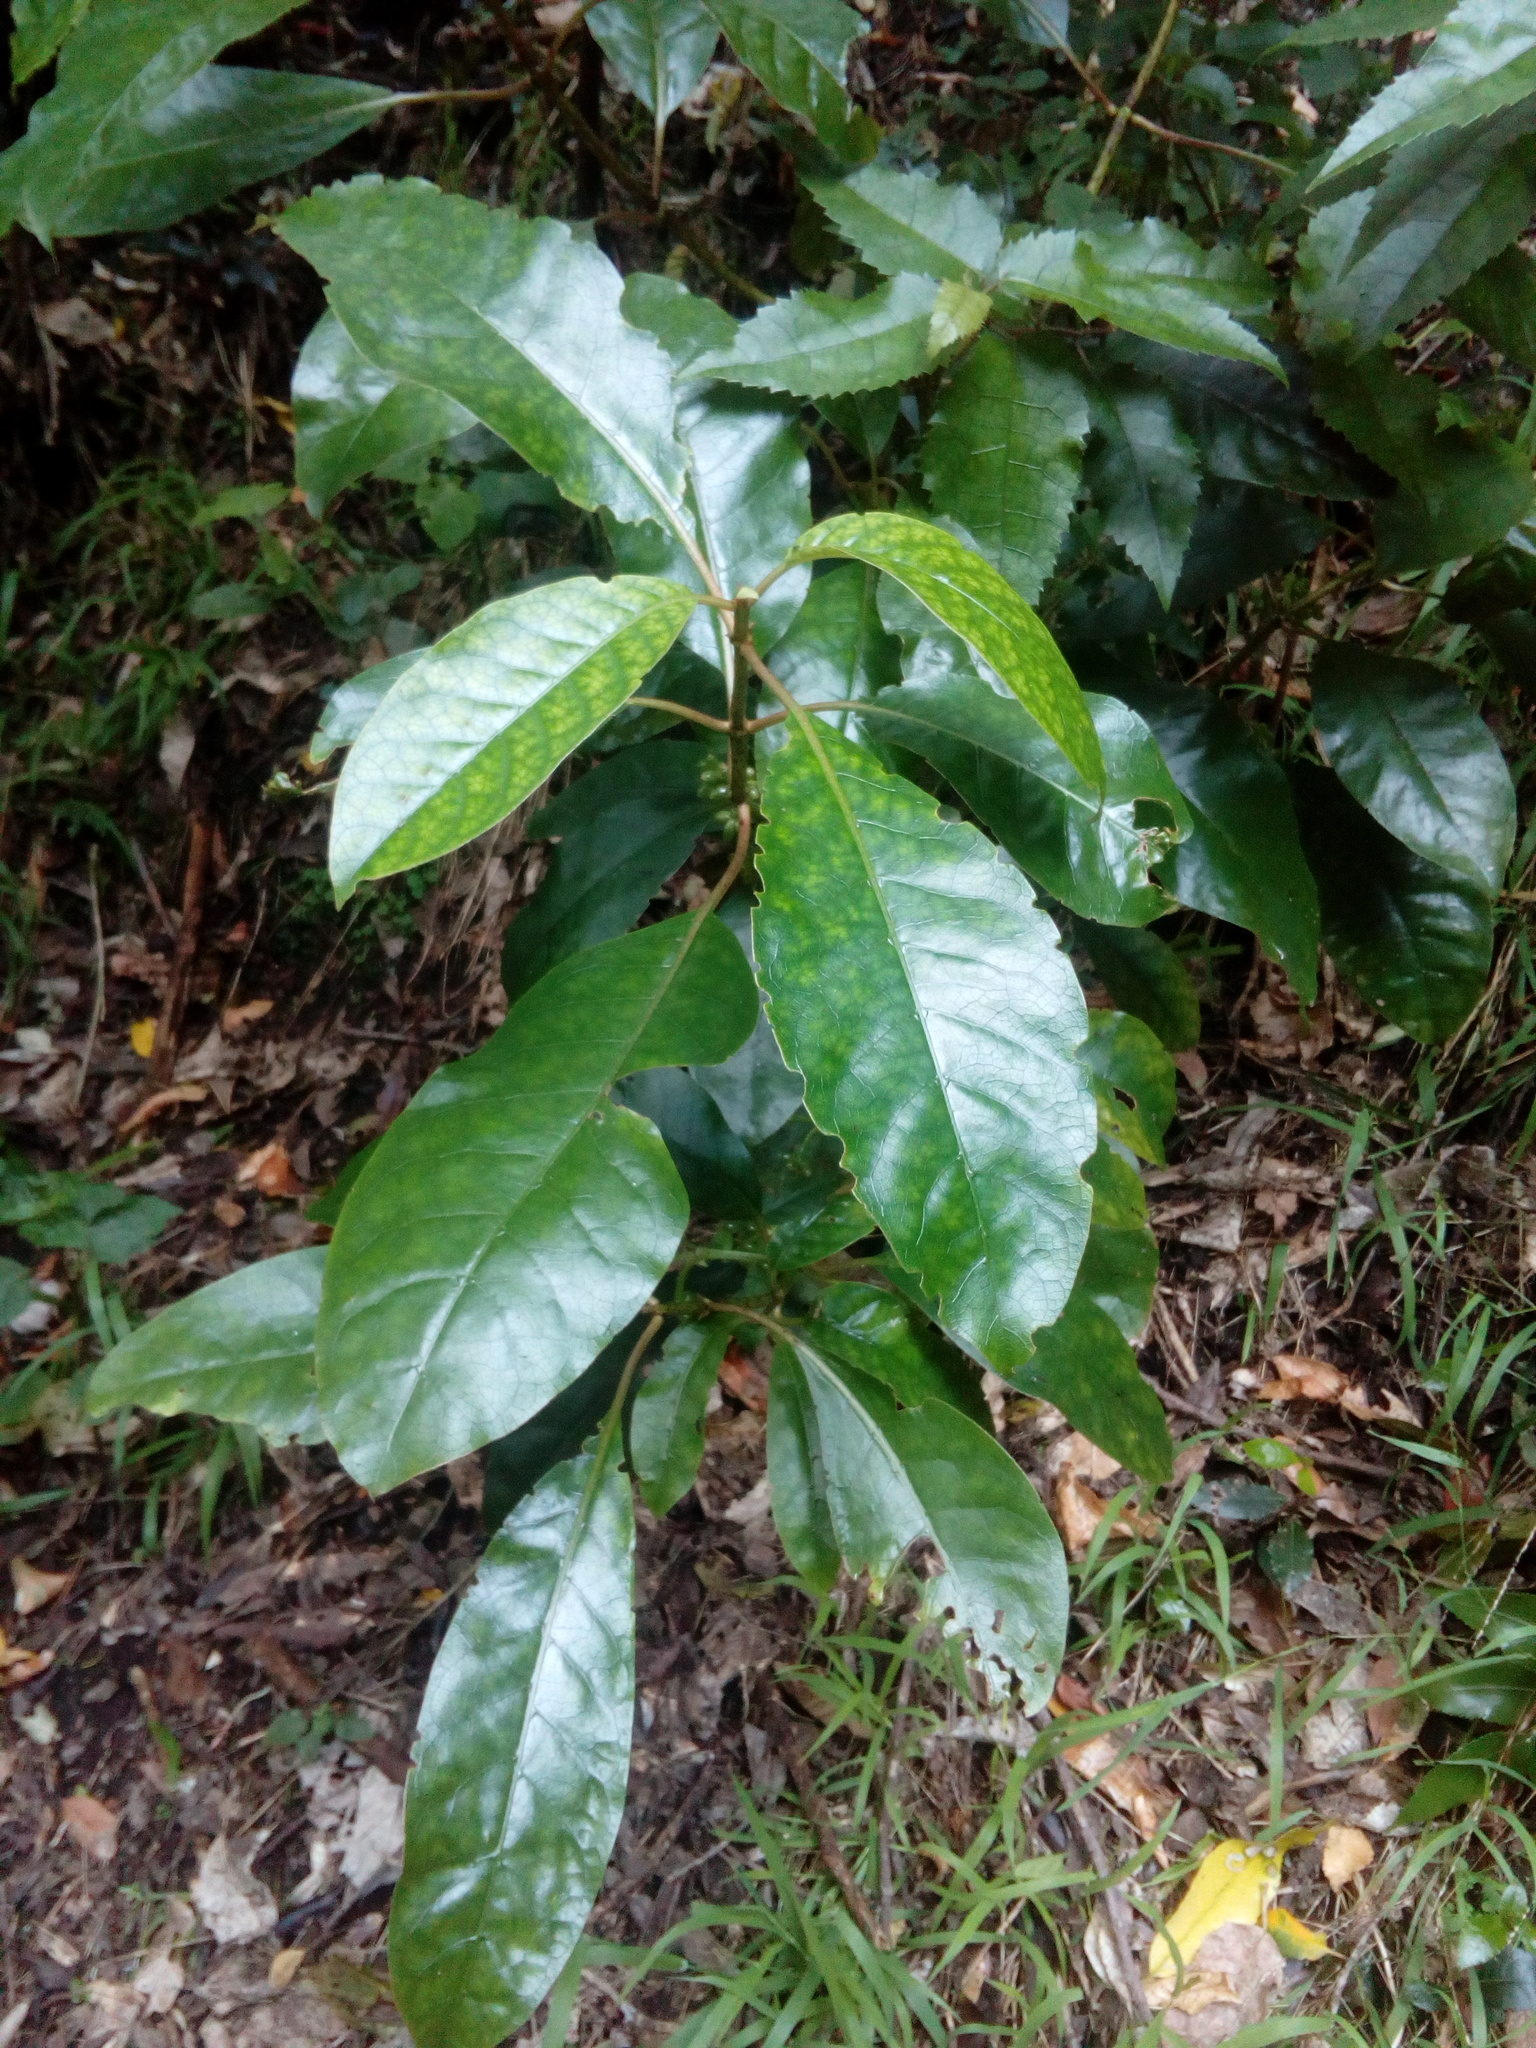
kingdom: Plantae
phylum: Tracheophyta
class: Magnoliopsida
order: Gentianales
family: Rubiaceae
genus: Coprosma
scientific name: Coprosma autumnalis
